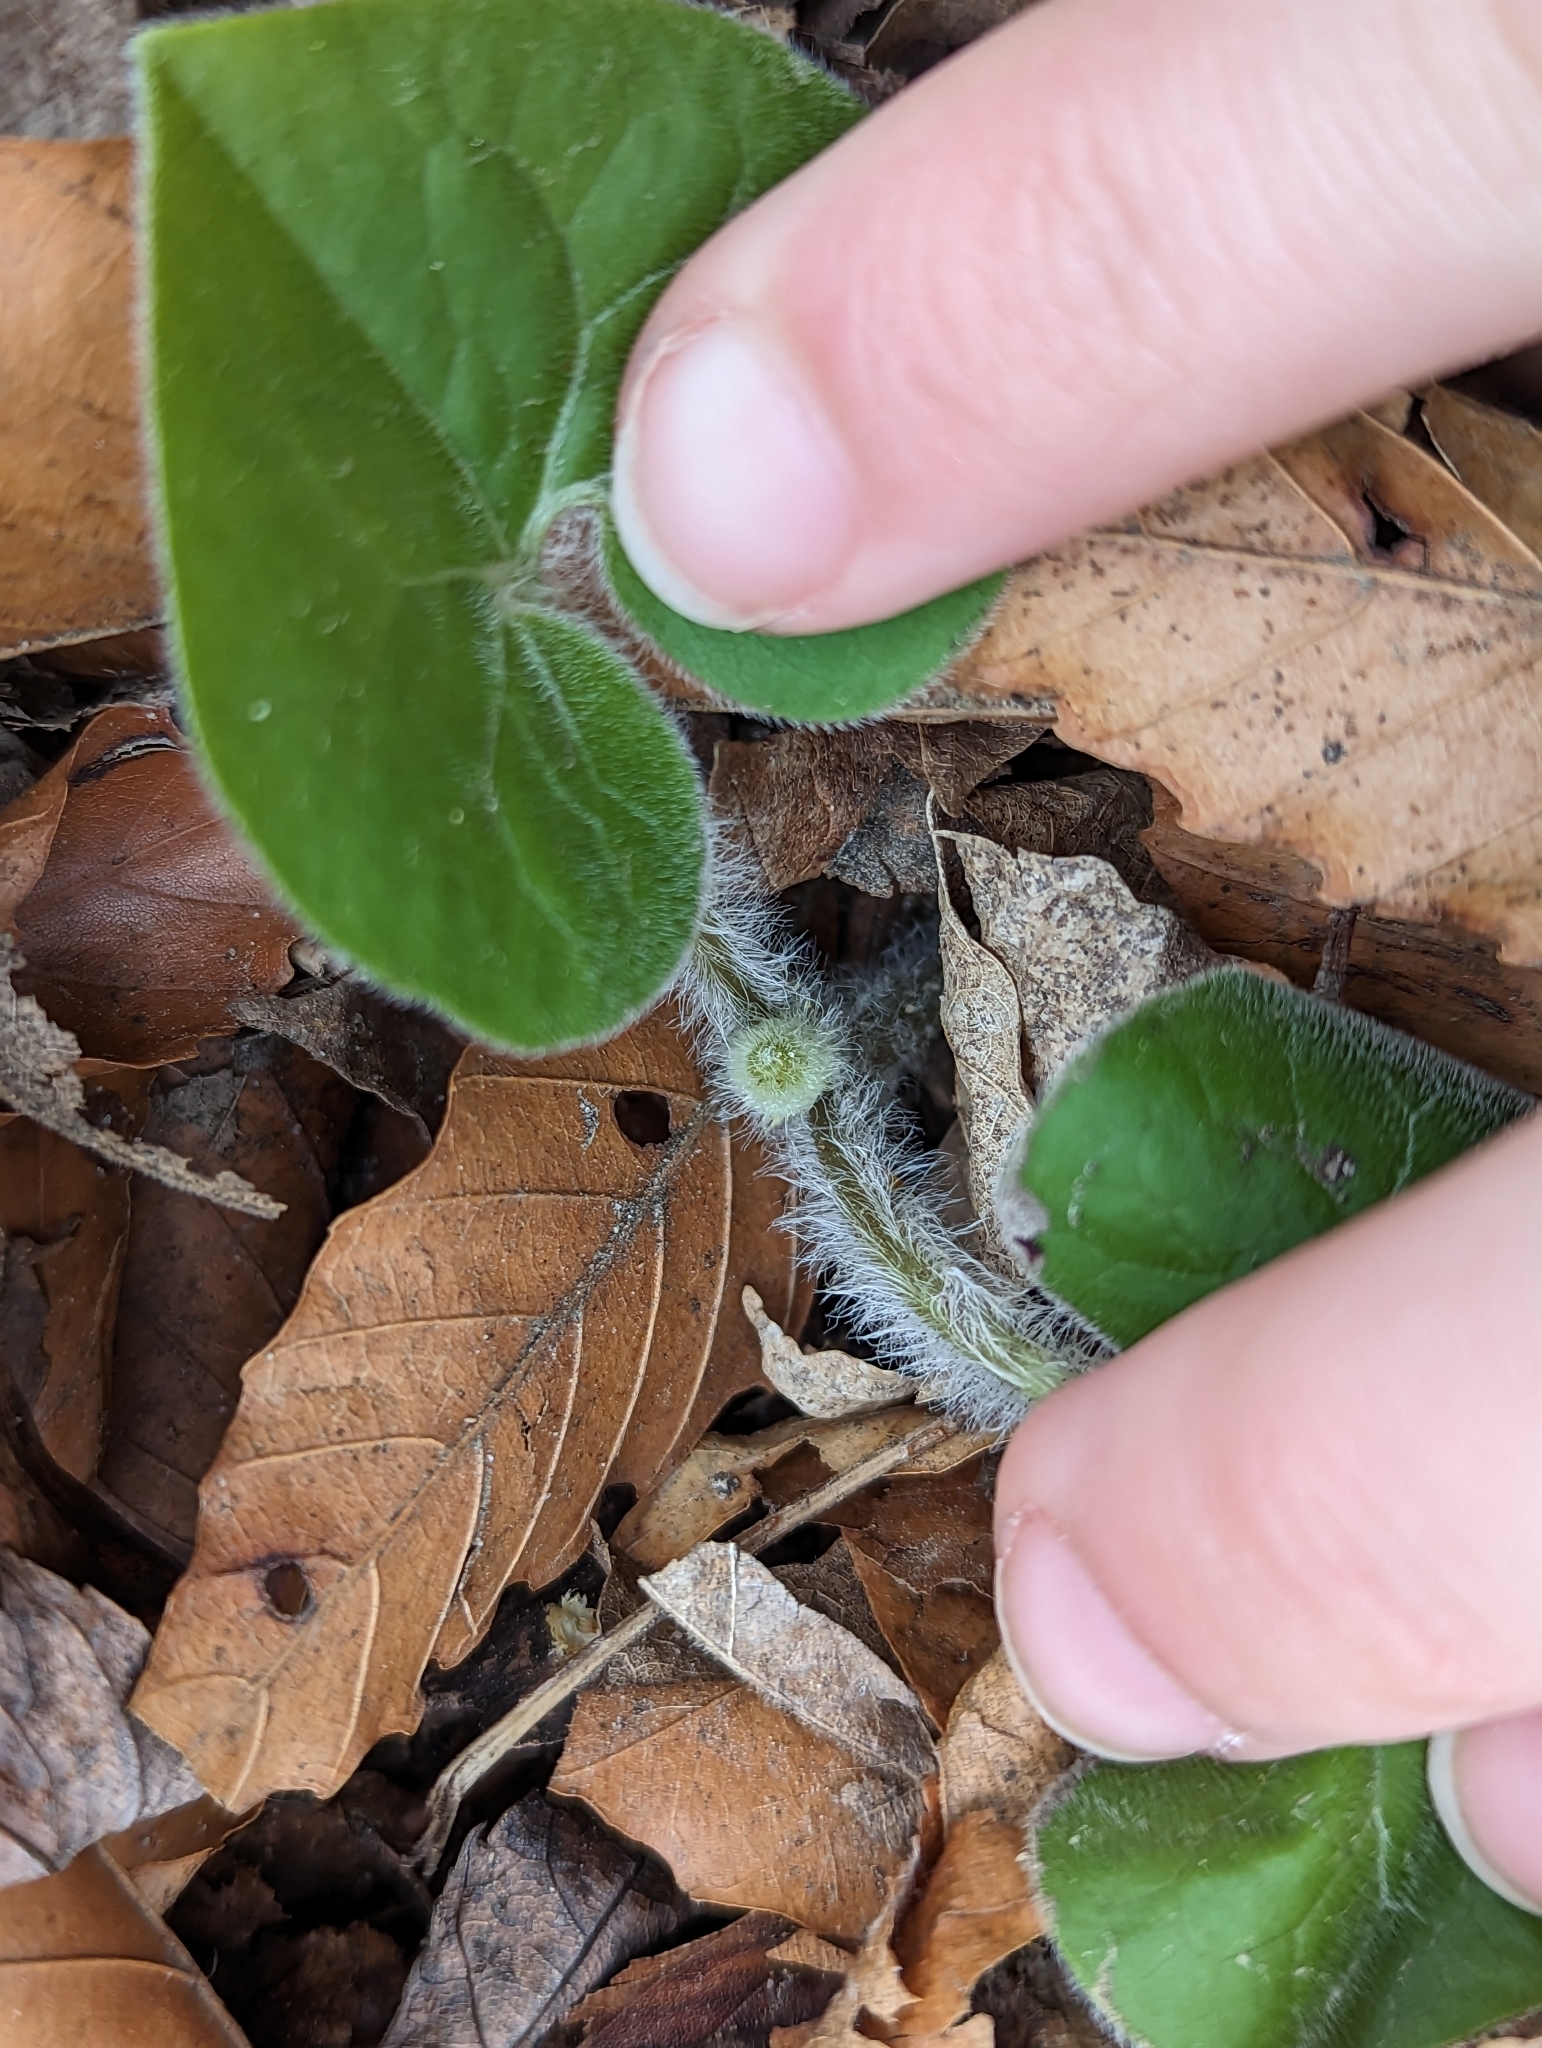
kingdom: Plantae
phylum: Tracheophyta
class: Magnoliopsida
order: Piperales
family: Aristolochiaceae
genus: Asarum
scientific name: Asarum canadense
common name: Wild ginger
